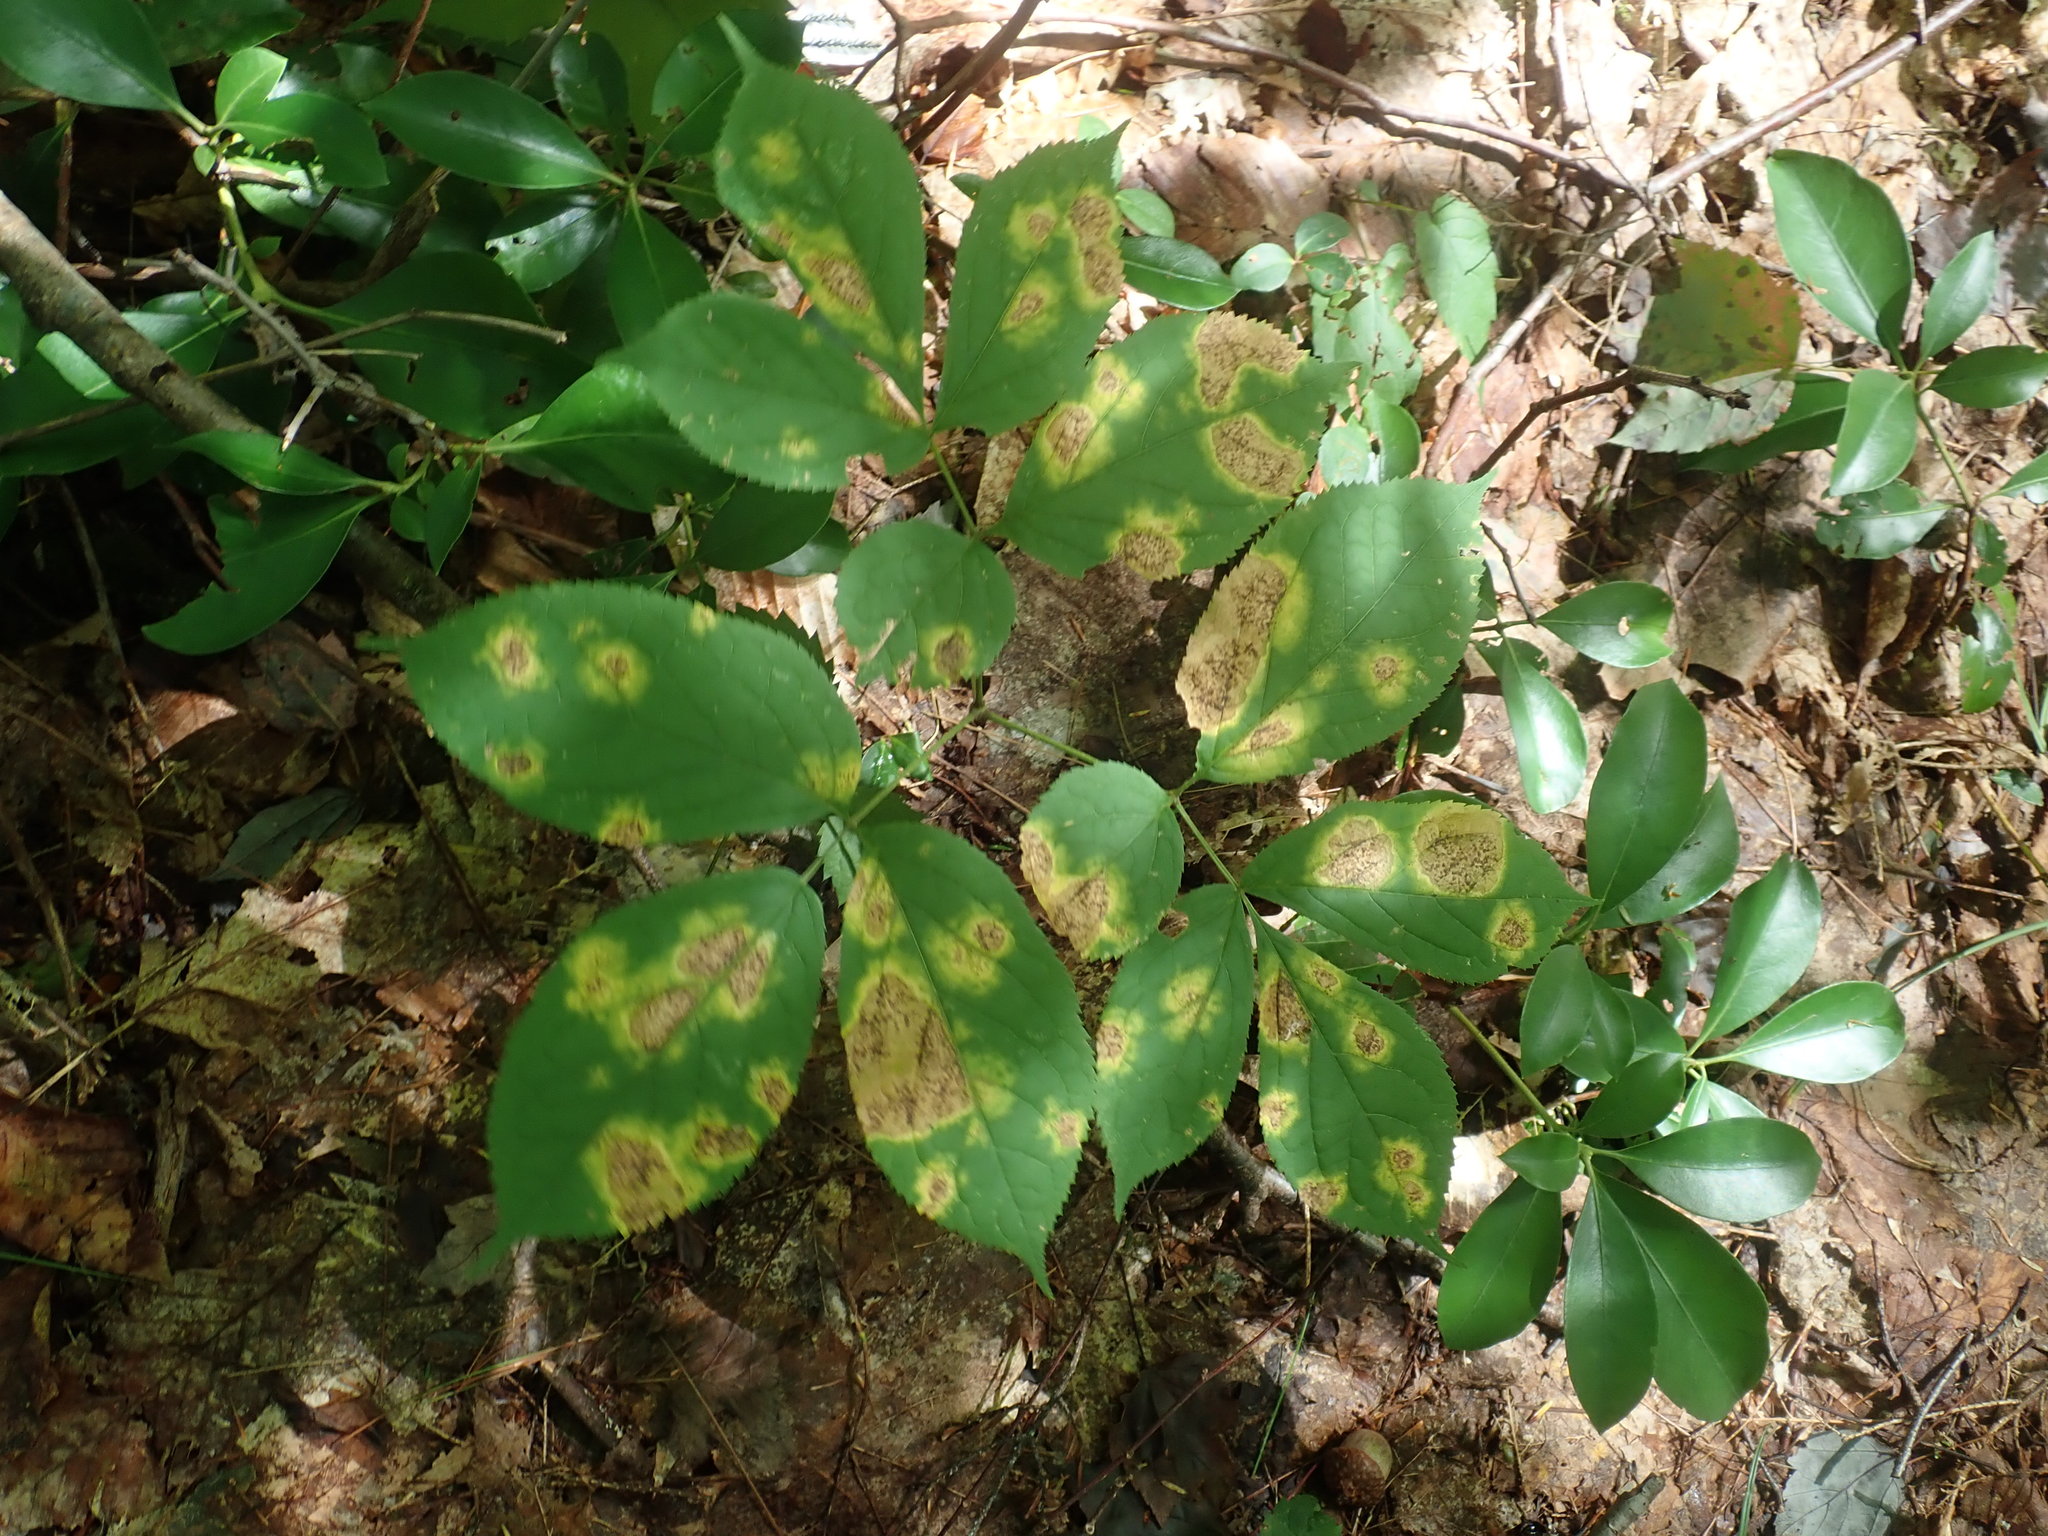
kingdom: Plantae
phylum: Tracheophyta
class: Magnoliopsida
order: Apiales
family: Araliaceae
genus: Aralia
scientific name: Aralia nudicaulis
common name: Wild sarsaparilla
